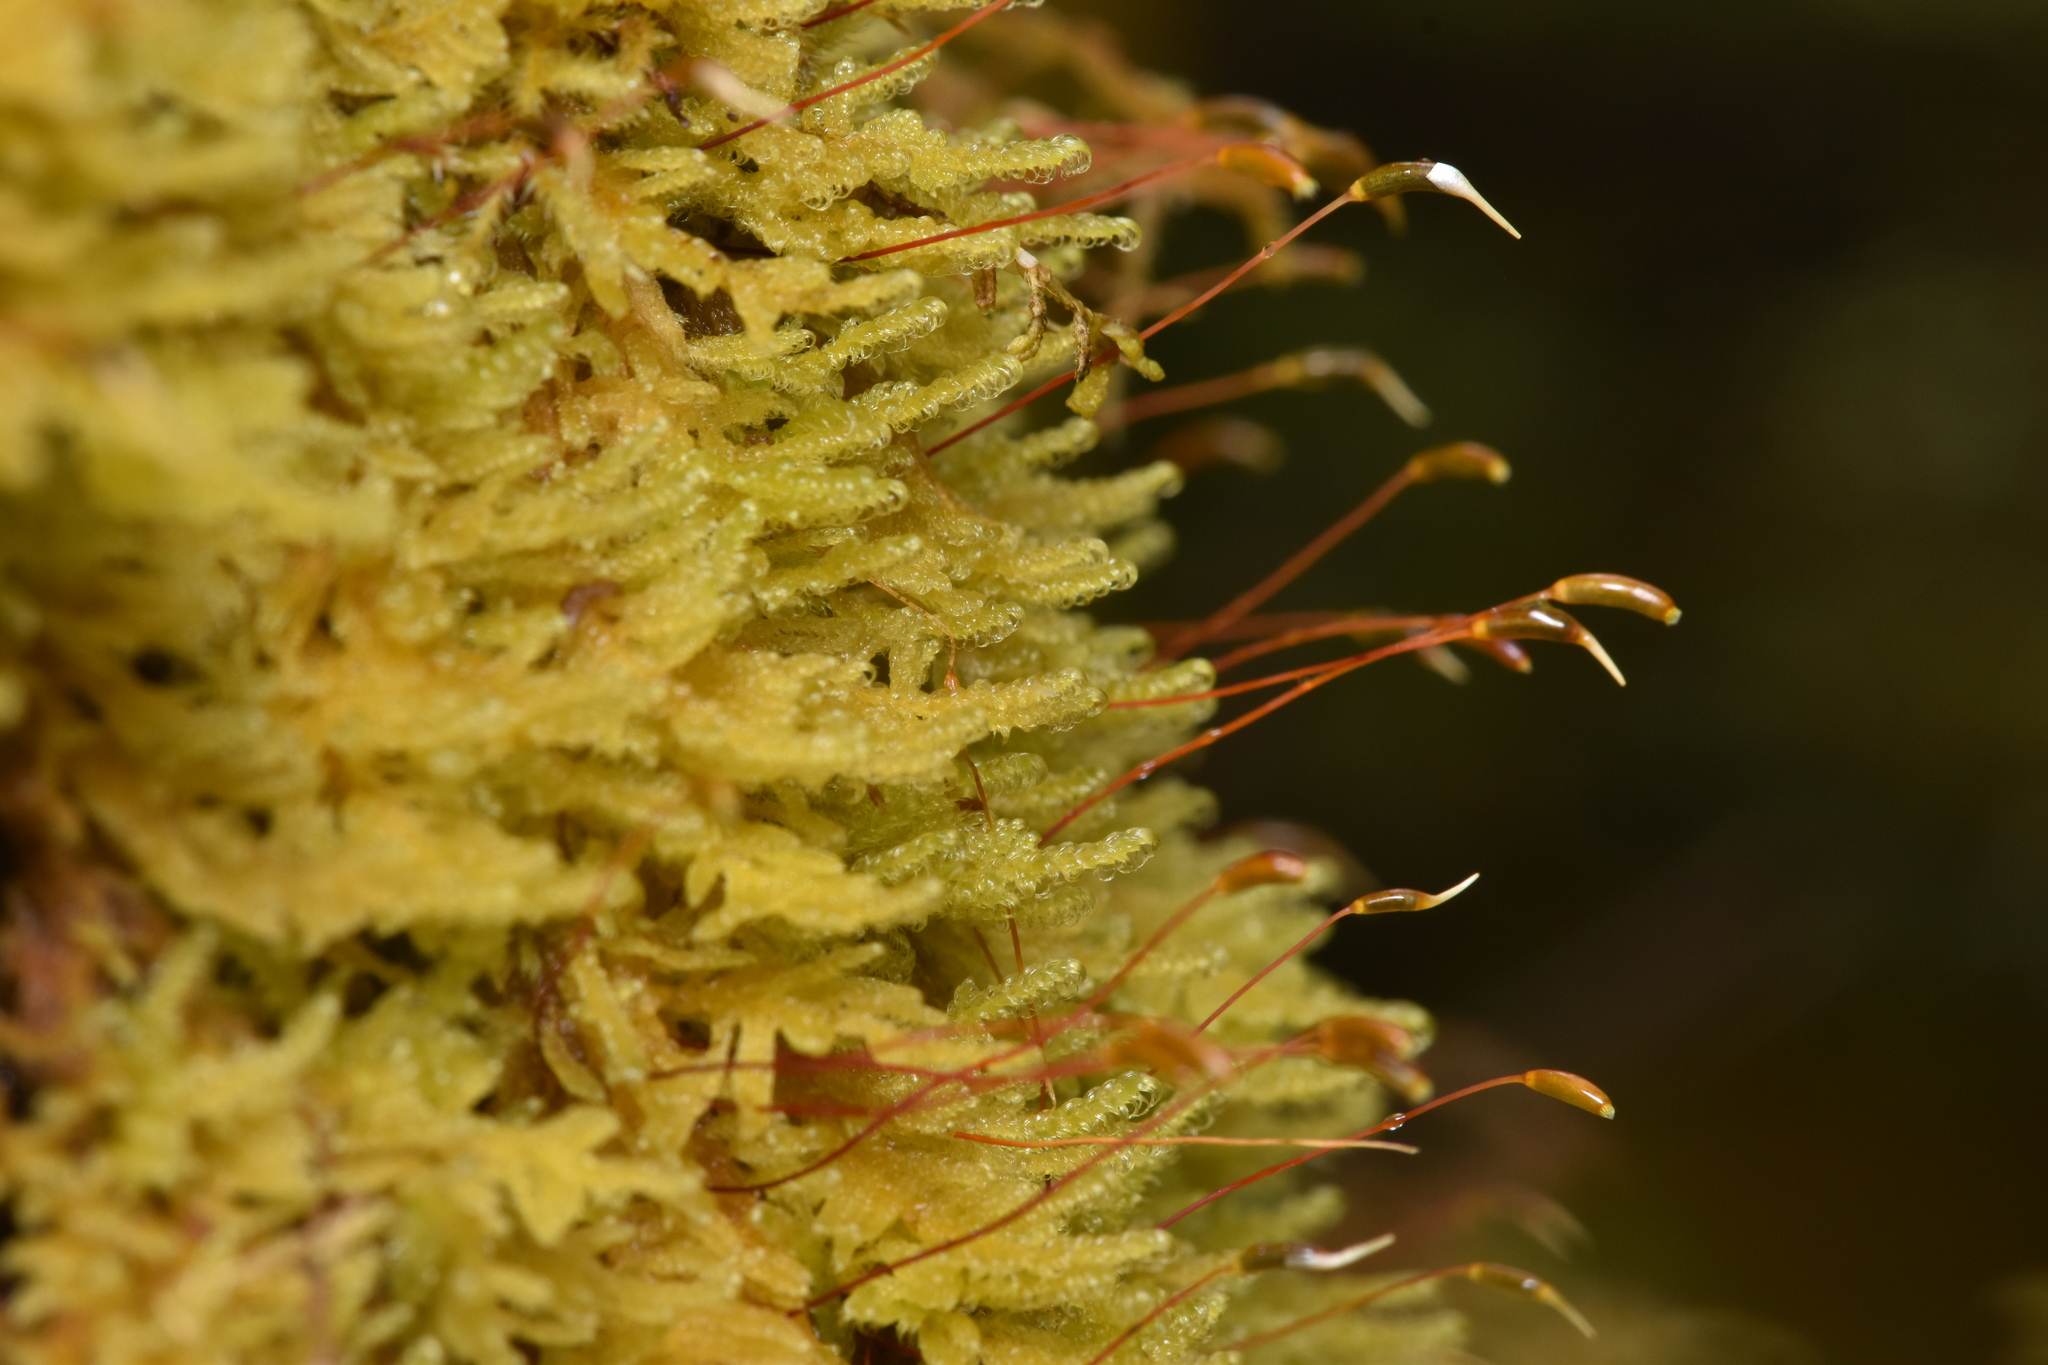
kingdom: Plantae
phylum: Bryophyta
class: Bryopsida
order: Hypnales
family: Stereodontaceae
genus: Stereodon
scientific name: Stereodon subimponens
